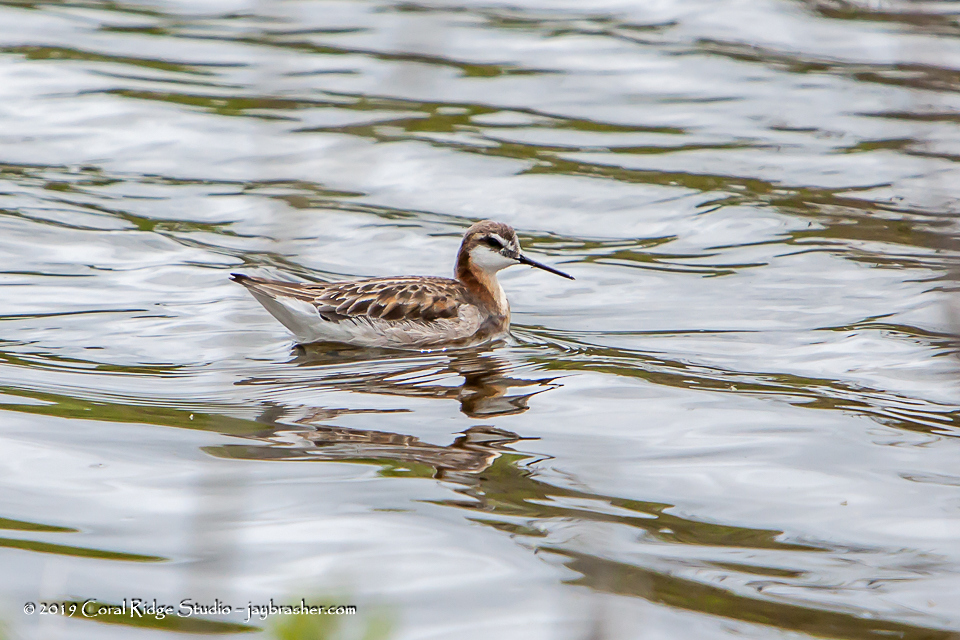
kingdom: Animalia
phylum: Chordata
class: Aves
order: Charadriiformes
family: Scolopacidae
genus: Phalaropus
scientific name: Phalaropus tricolor
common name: Wilson's phalarope
